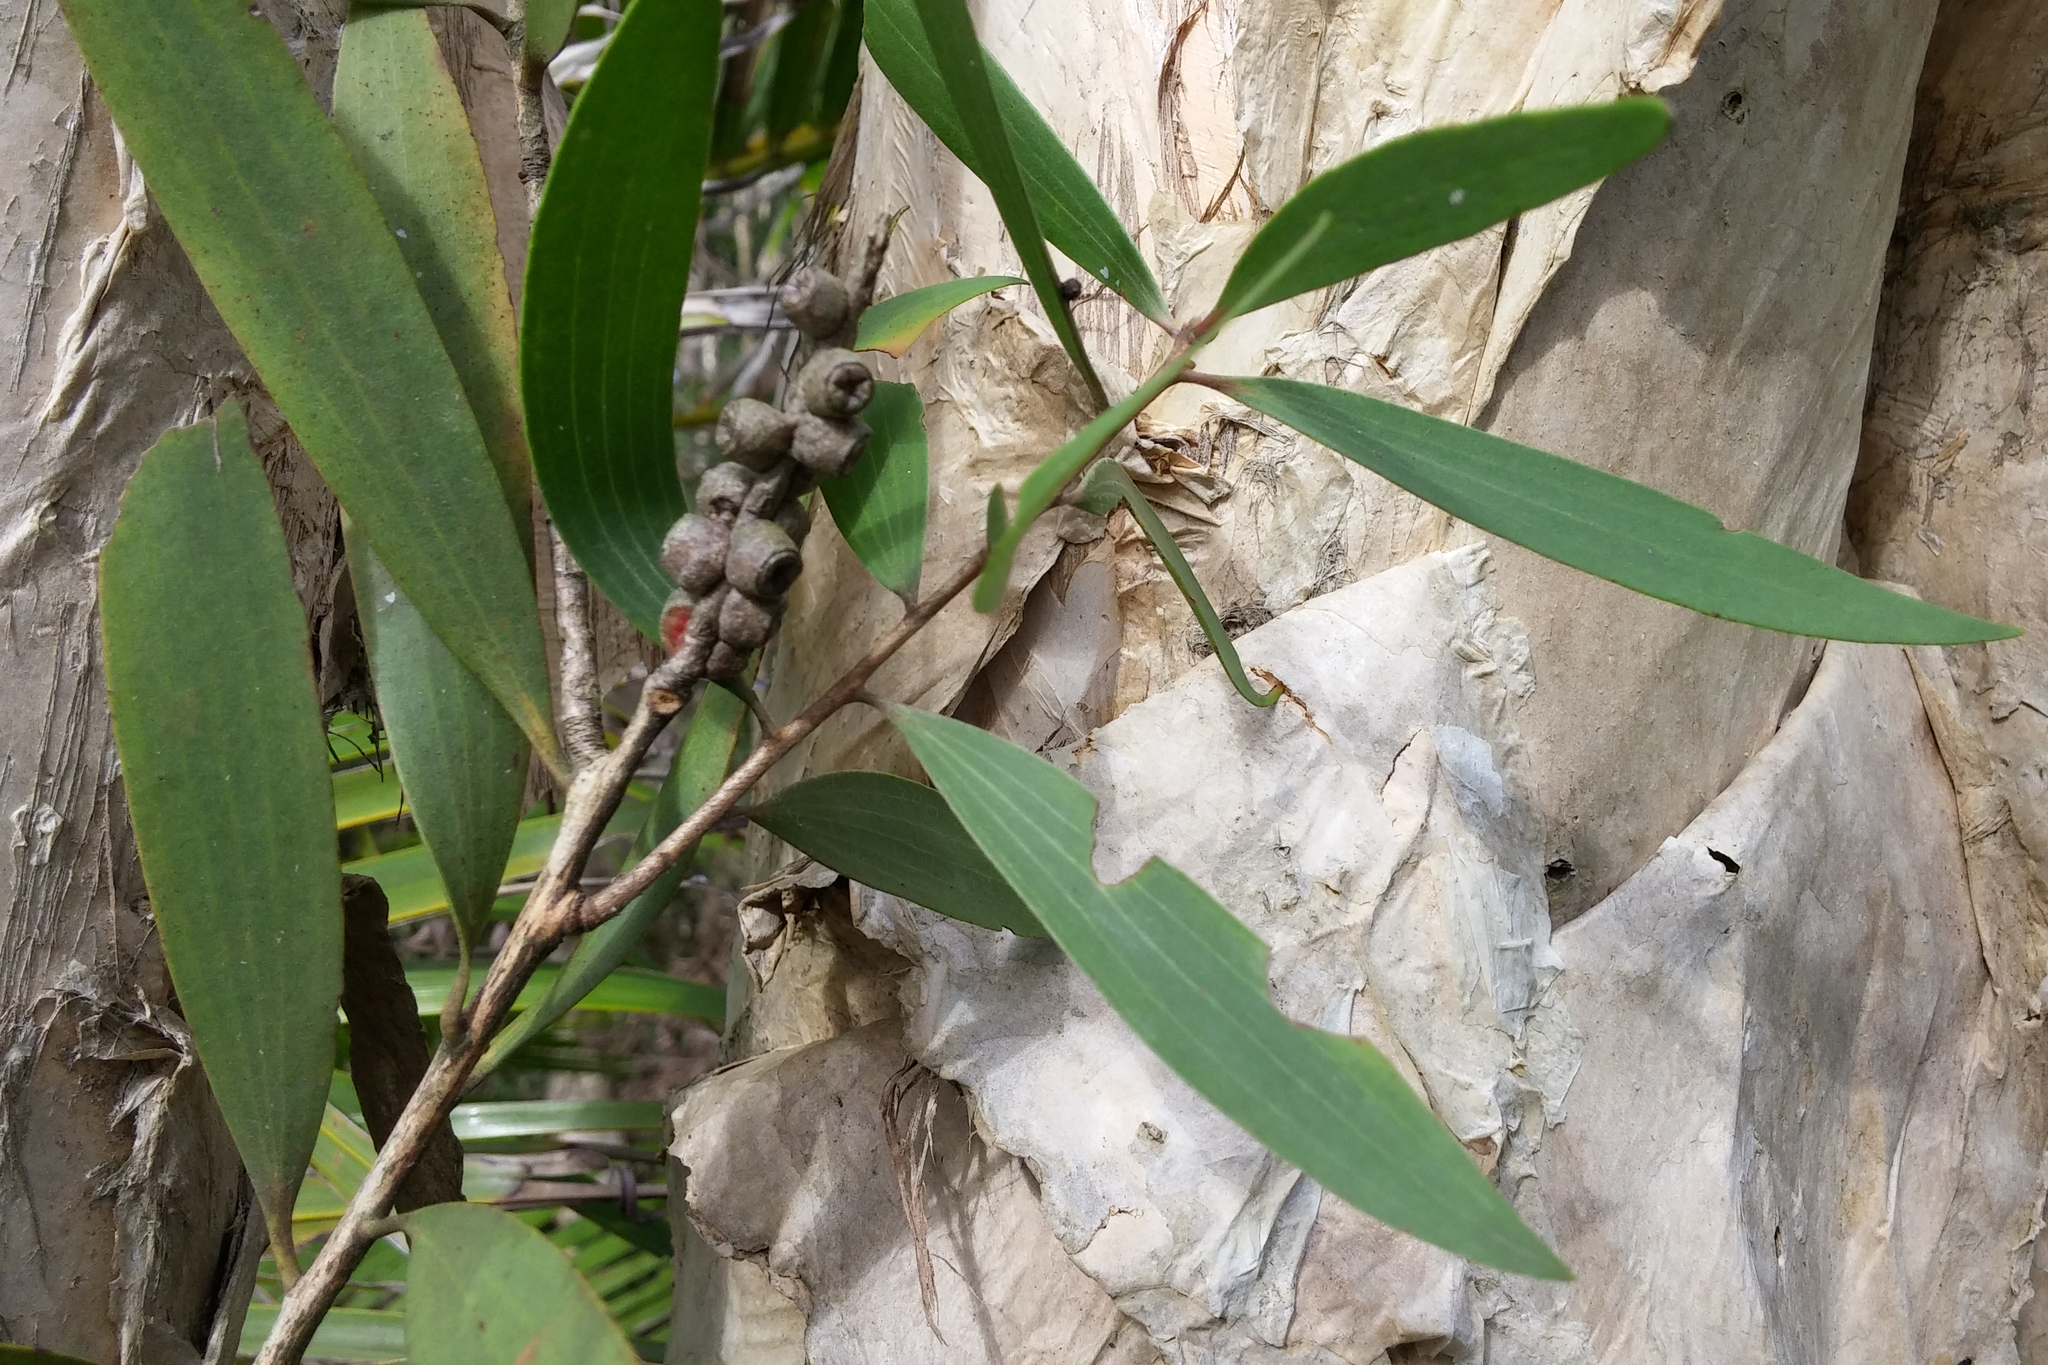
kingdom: Plantae
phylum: Tracheophyta
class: Magnoliopsida
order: Myrtales
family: Myrtaceae
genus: Melaleuca
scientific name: Melaleuca quinquenervia
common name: Punktree
